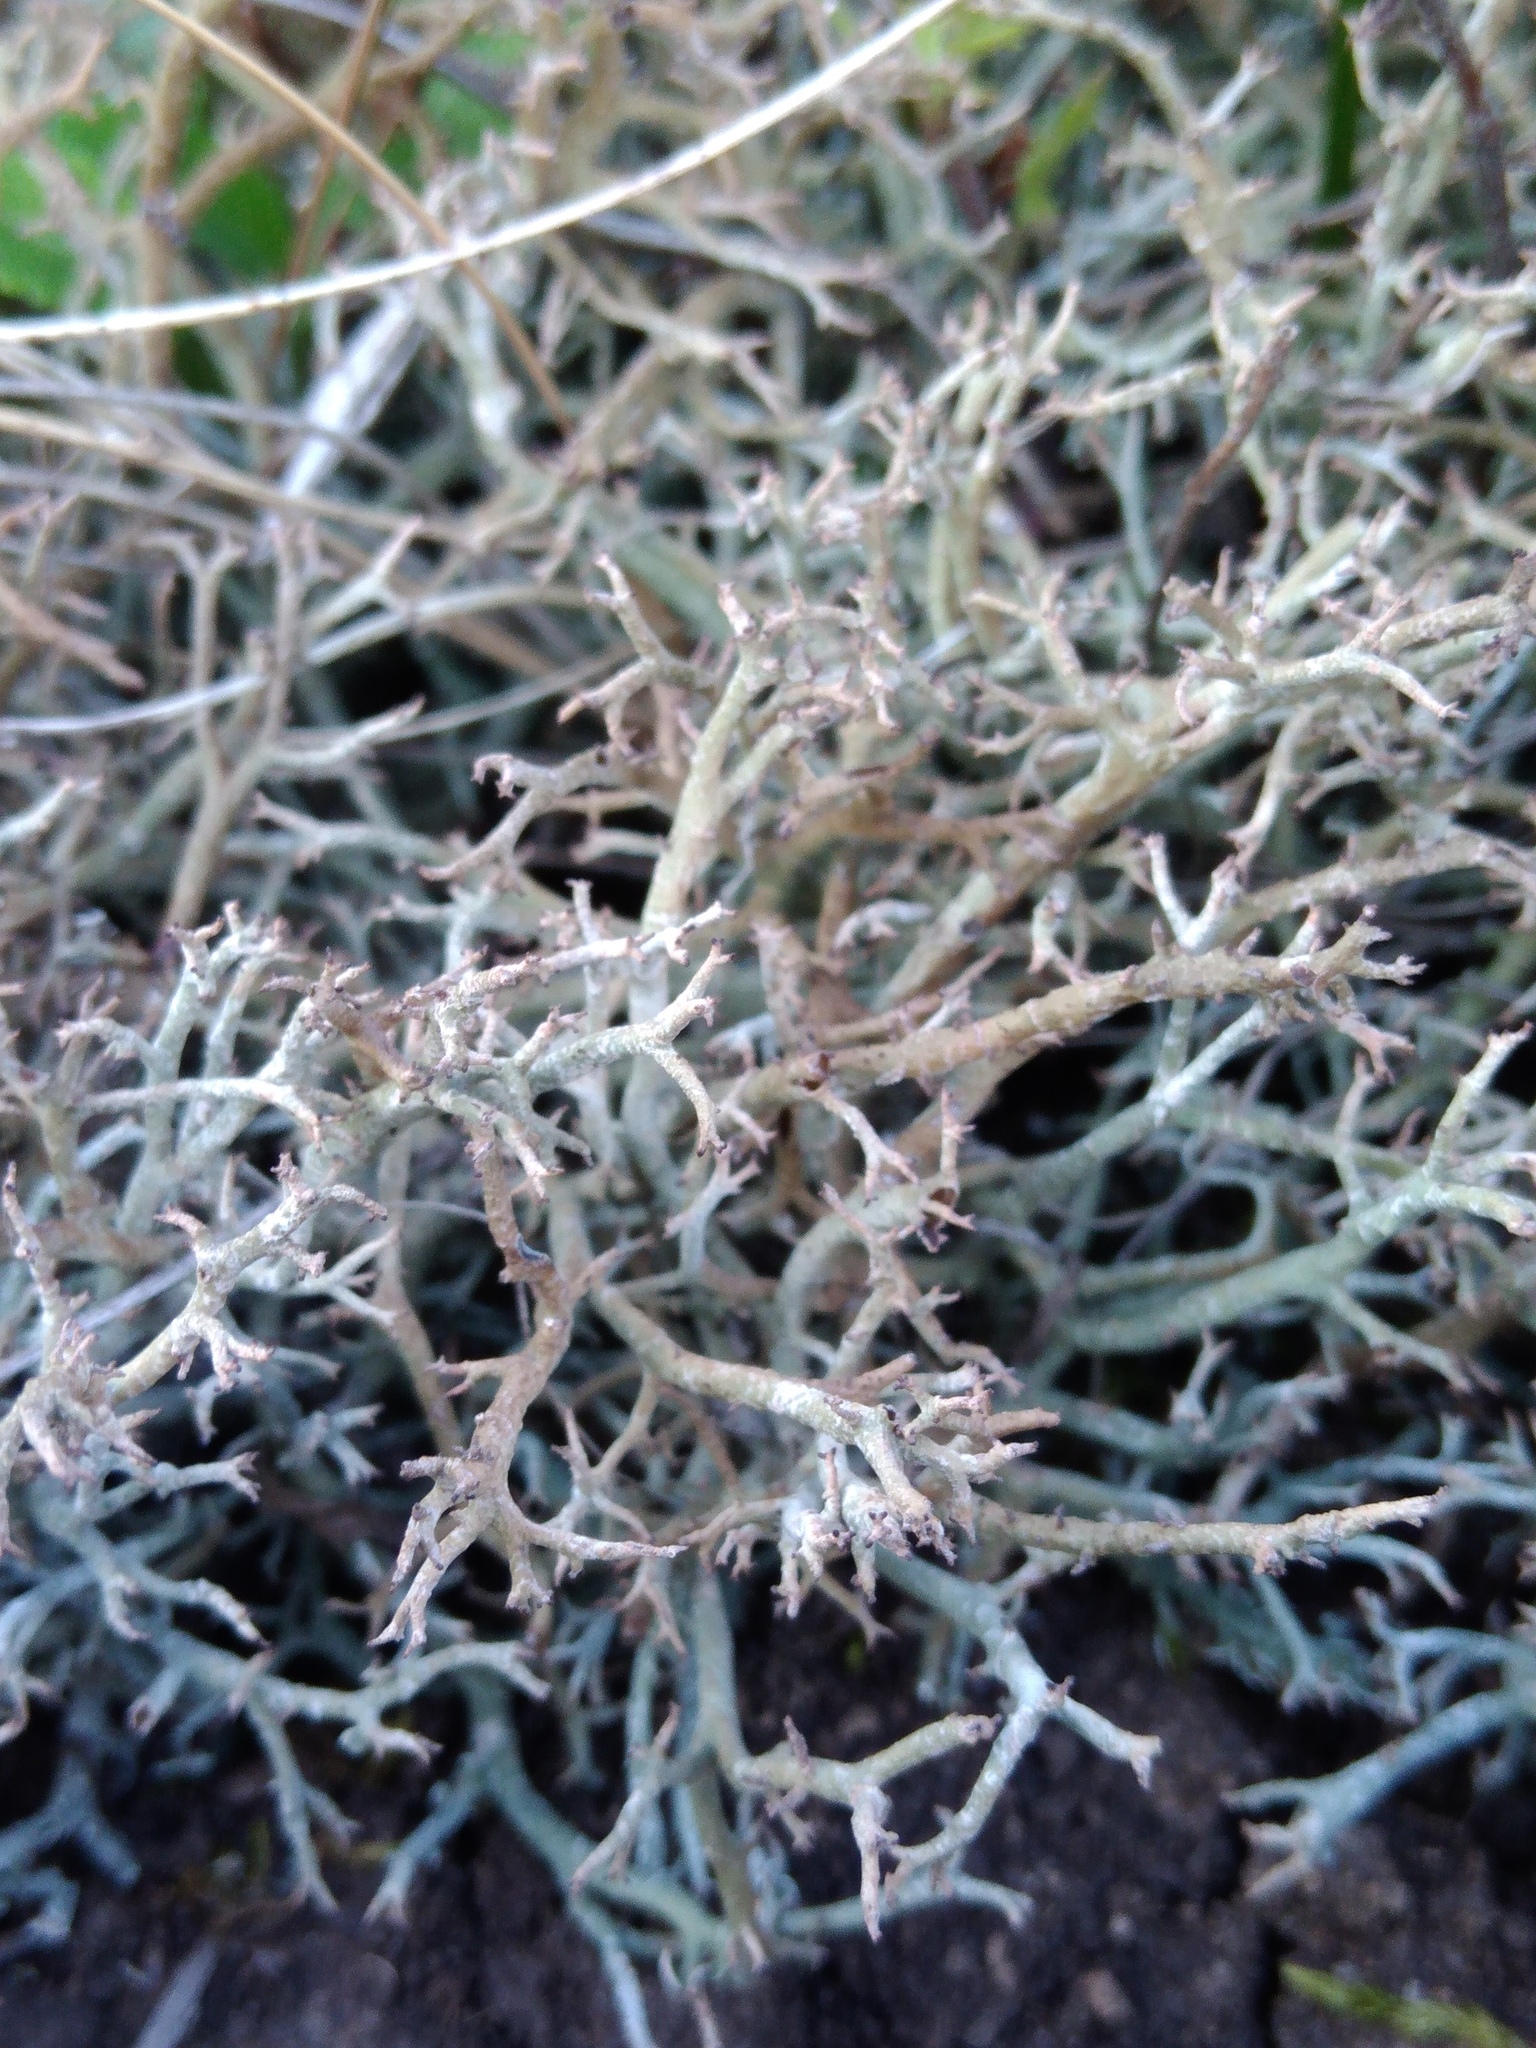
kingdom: Fungi
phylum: Ascomycota
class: Lecanoromycetes
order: Lecanorales
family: Cladoniaceae
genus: Cladonia
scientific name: Cladonia rangiformis
